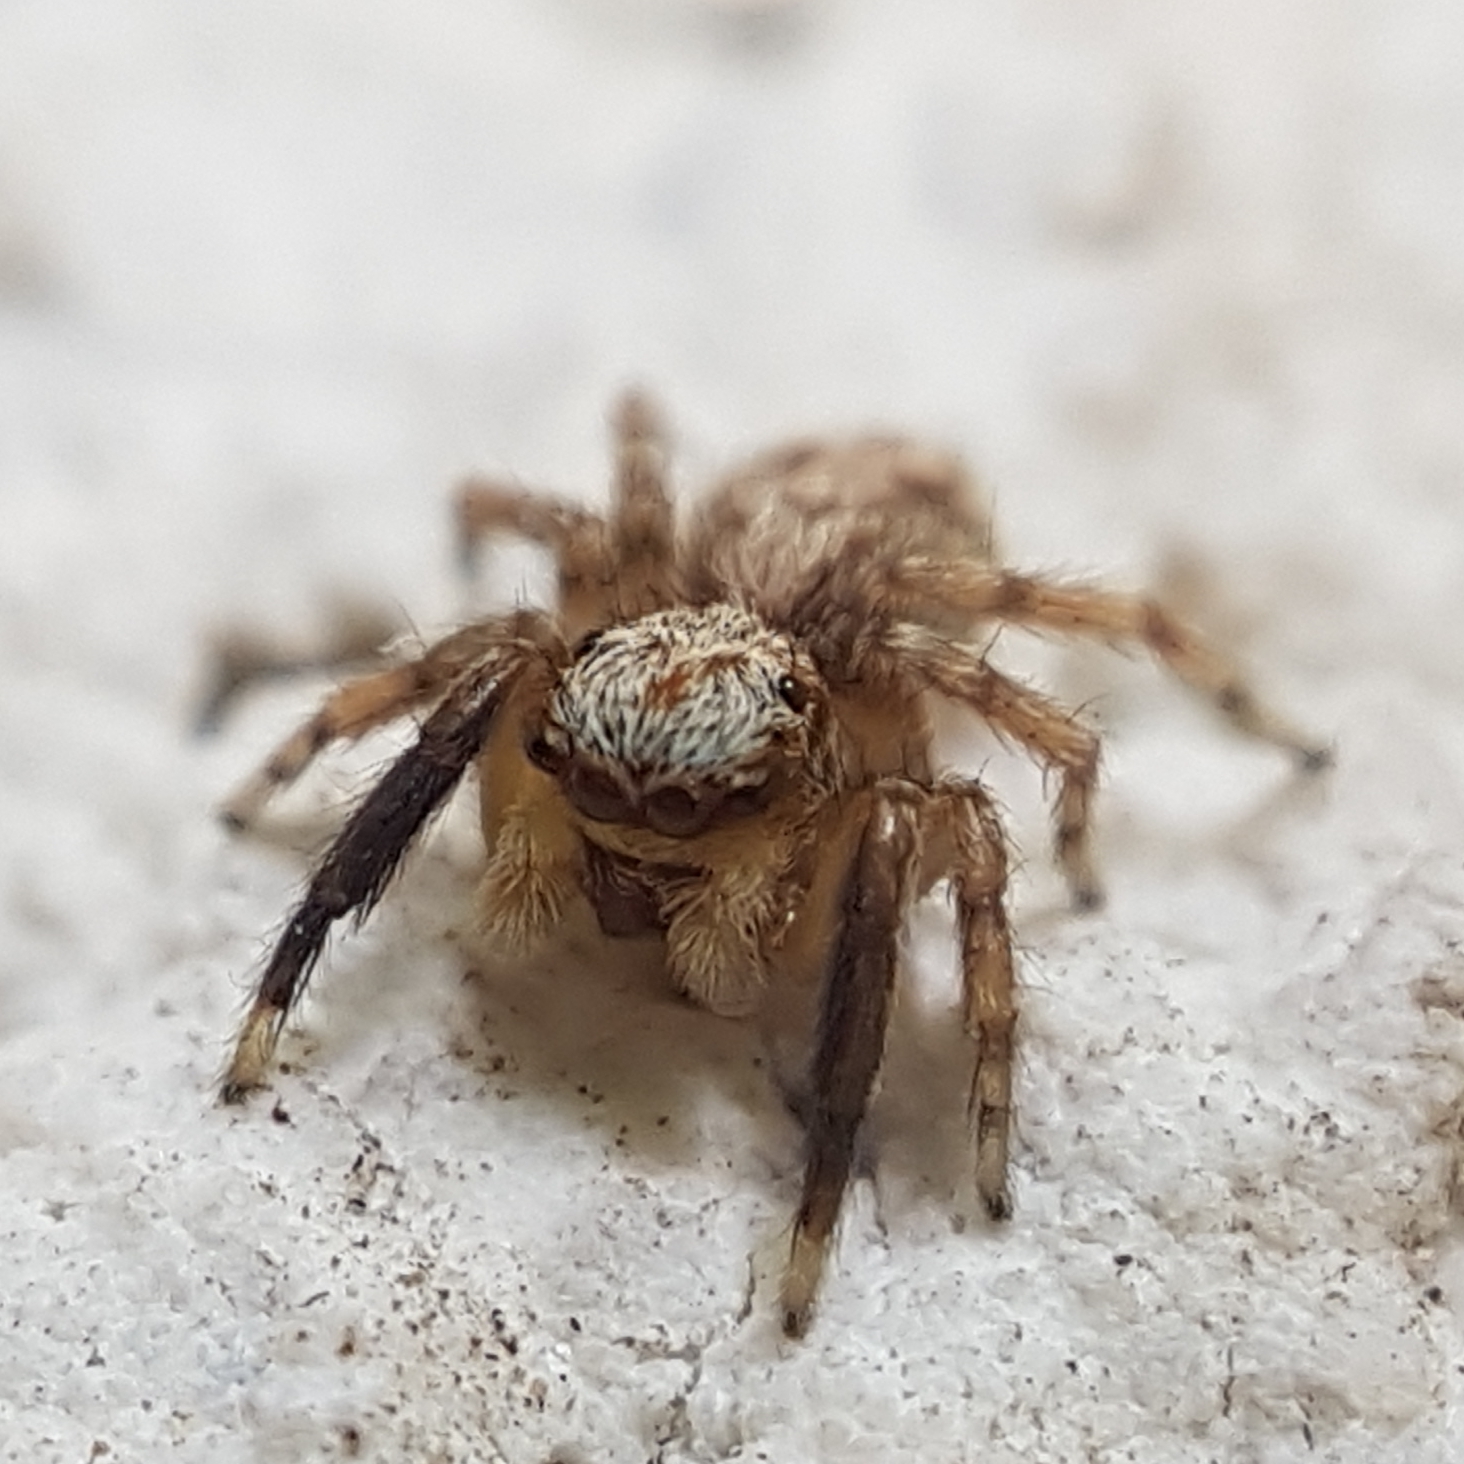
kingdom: Animalia
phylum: Arthropoda
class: Arachnida
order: Araneae
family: Salticidae
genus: Pseudeuophrys
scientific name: Pseudeuophrys vafra
